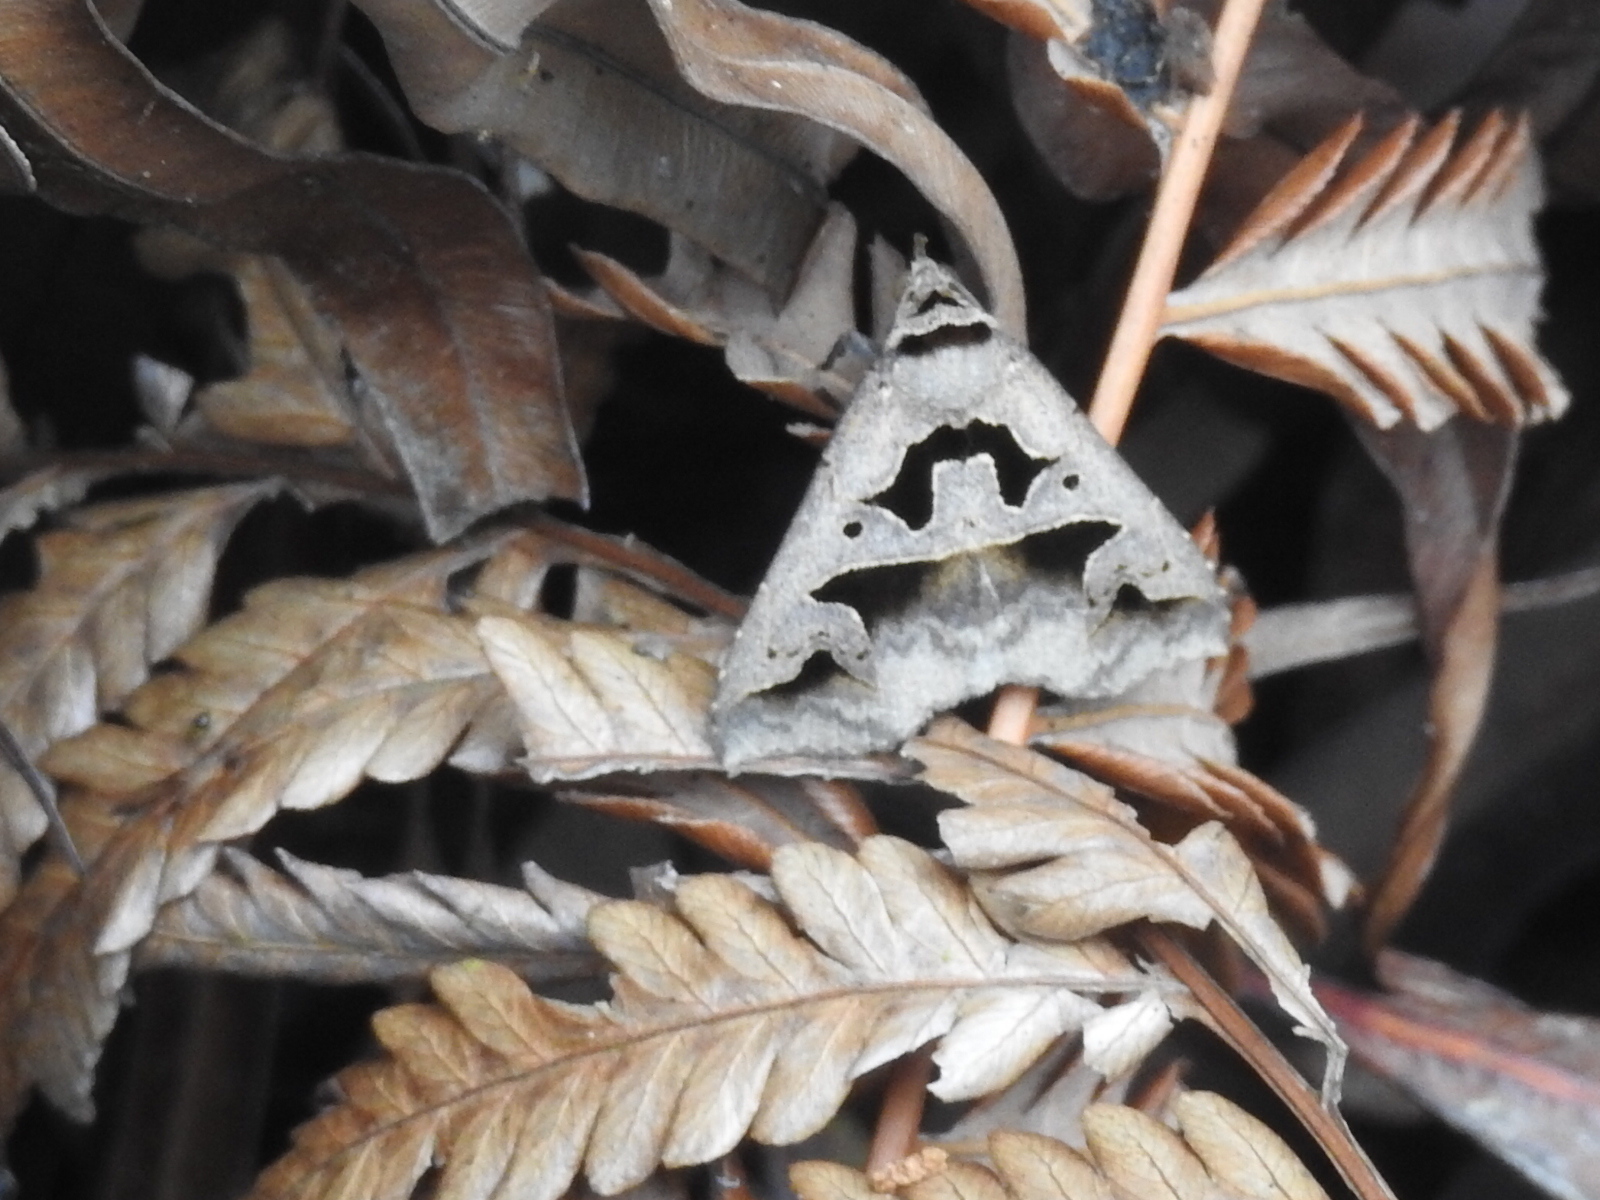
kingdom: Animalia
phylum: Arthropoda
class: Insecta
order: Lepidoptera
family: Erebidae
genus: Tephriopis
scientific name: Tephriopis divulsa
